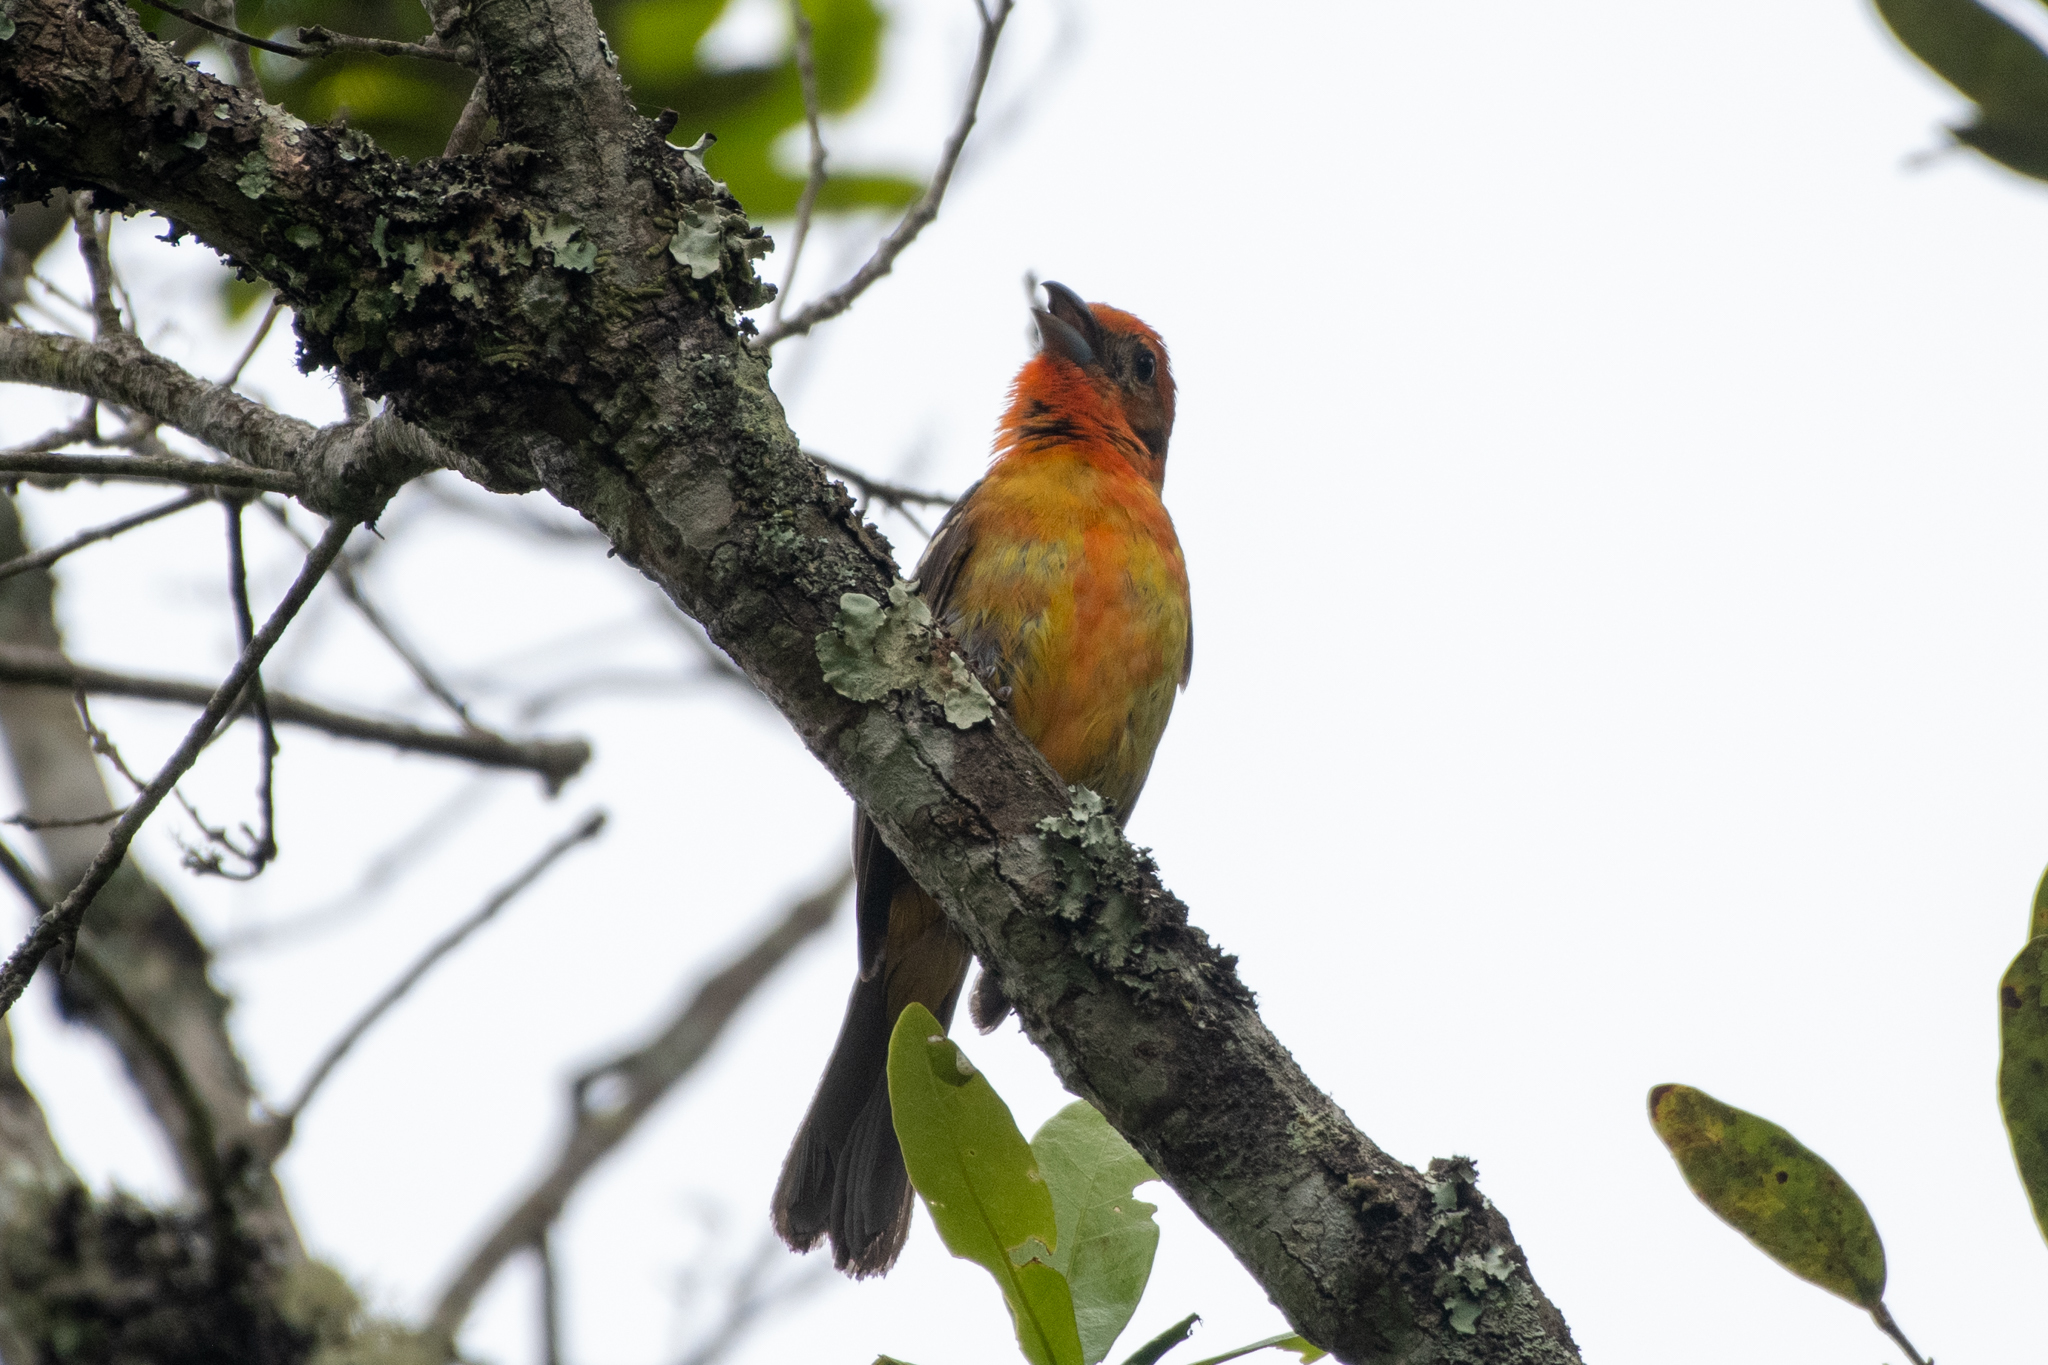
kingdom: Animalia
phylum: Chordata
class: Aves
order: Passeriformes
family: Cardinalidae
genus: Piranga
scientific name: Piranga bidentata
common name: Flame-colored tanager
